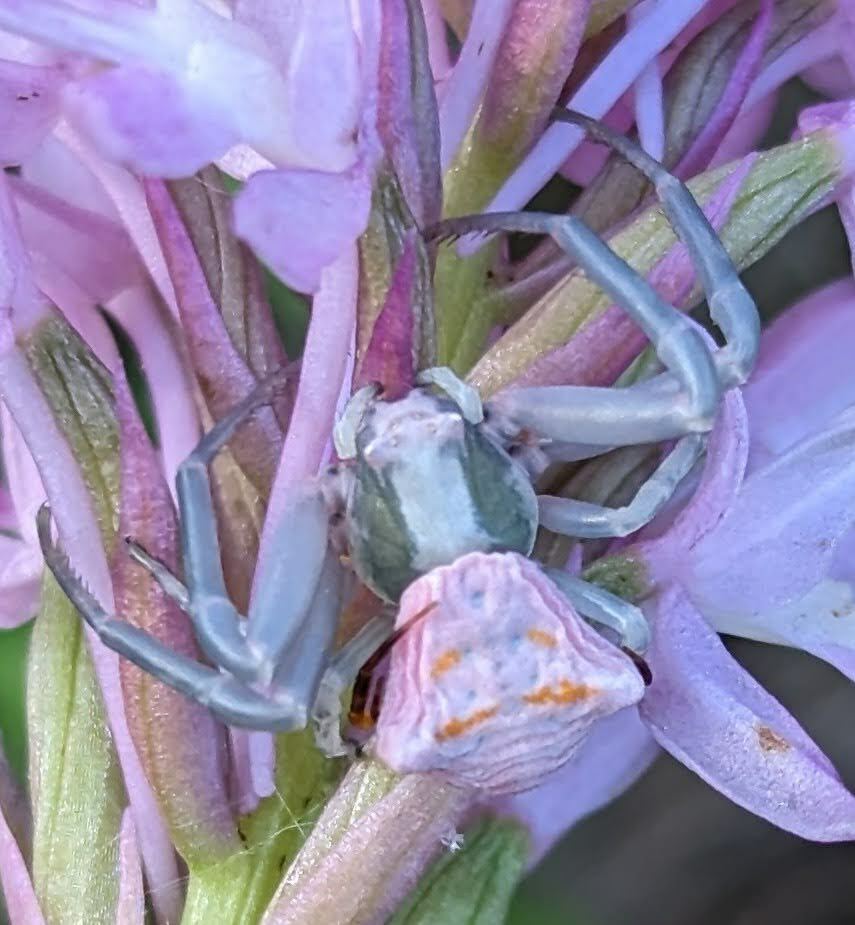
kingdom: Animalia
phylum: Arthropoda
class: Arachnida
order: Araneae
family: Thomisidae
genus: Thomisus
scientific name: Thomisus onustus
